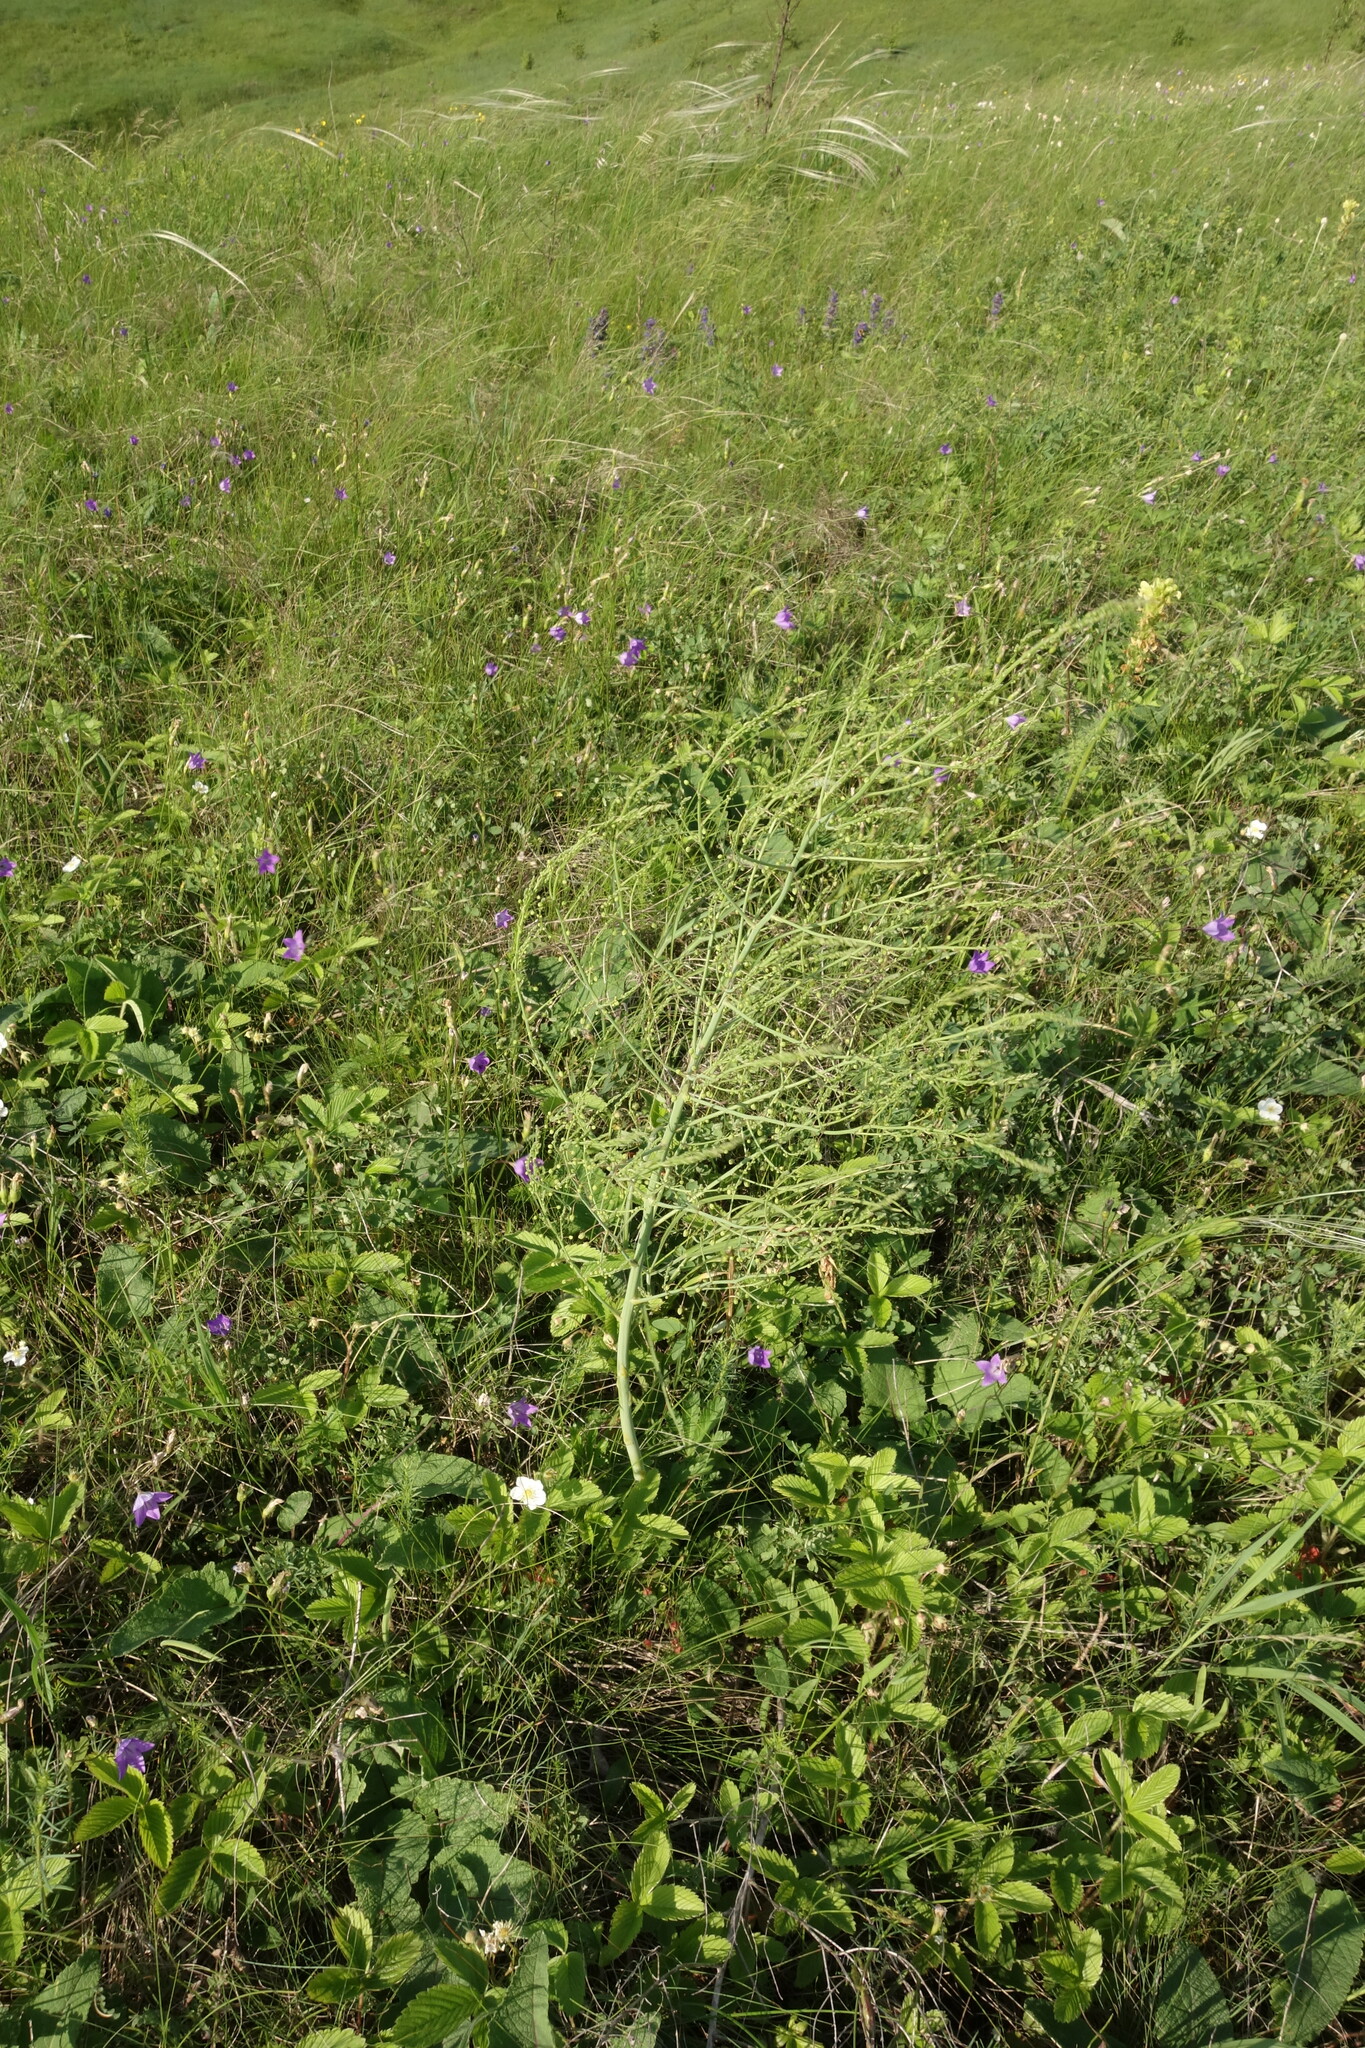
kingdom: Plantae
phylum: Tracheophyta
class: Liliopsida
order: Asparagales
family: Asparagaceae
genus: Asparagus
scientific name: Asparagus officinalis
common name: Garden asparagus
